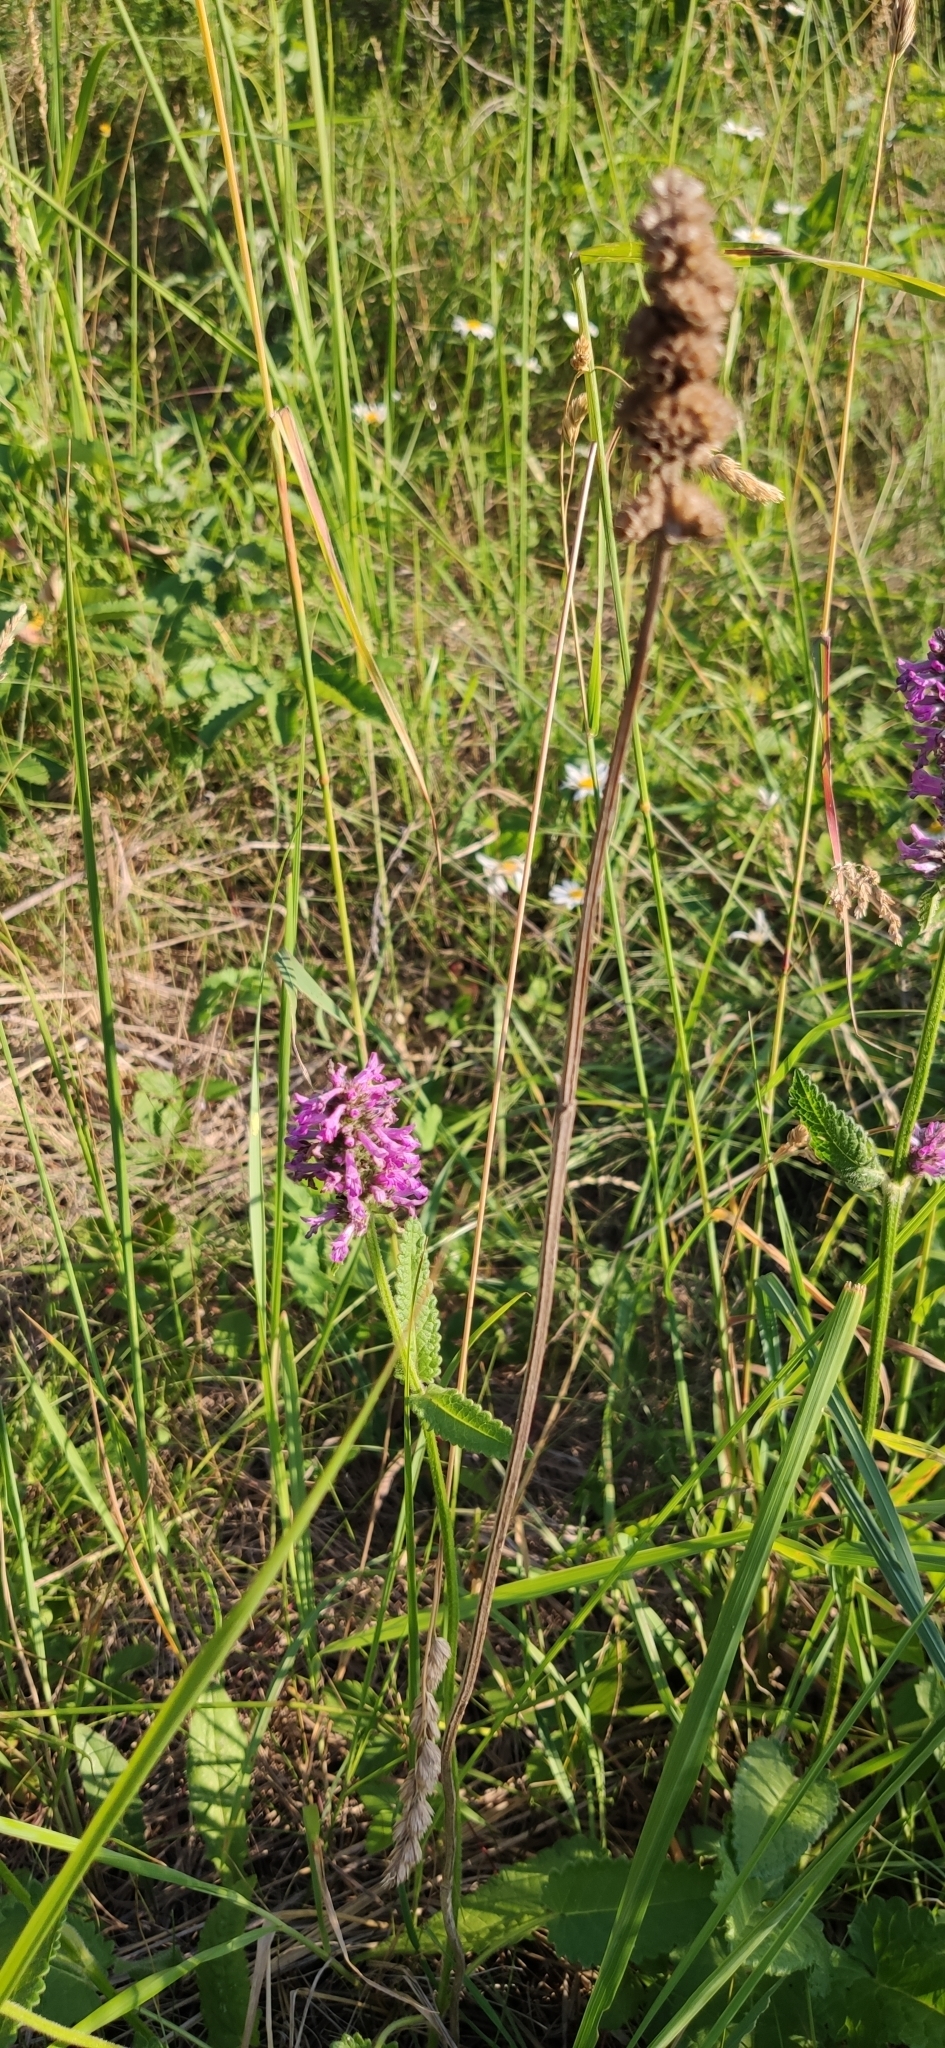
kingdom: Plantae
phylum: Tracheophyta
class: Magnoliopsida
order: Lamiales
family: Lamiaceae
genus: Betonica
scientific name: Betonica officinalis
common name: Bishop's-wort
